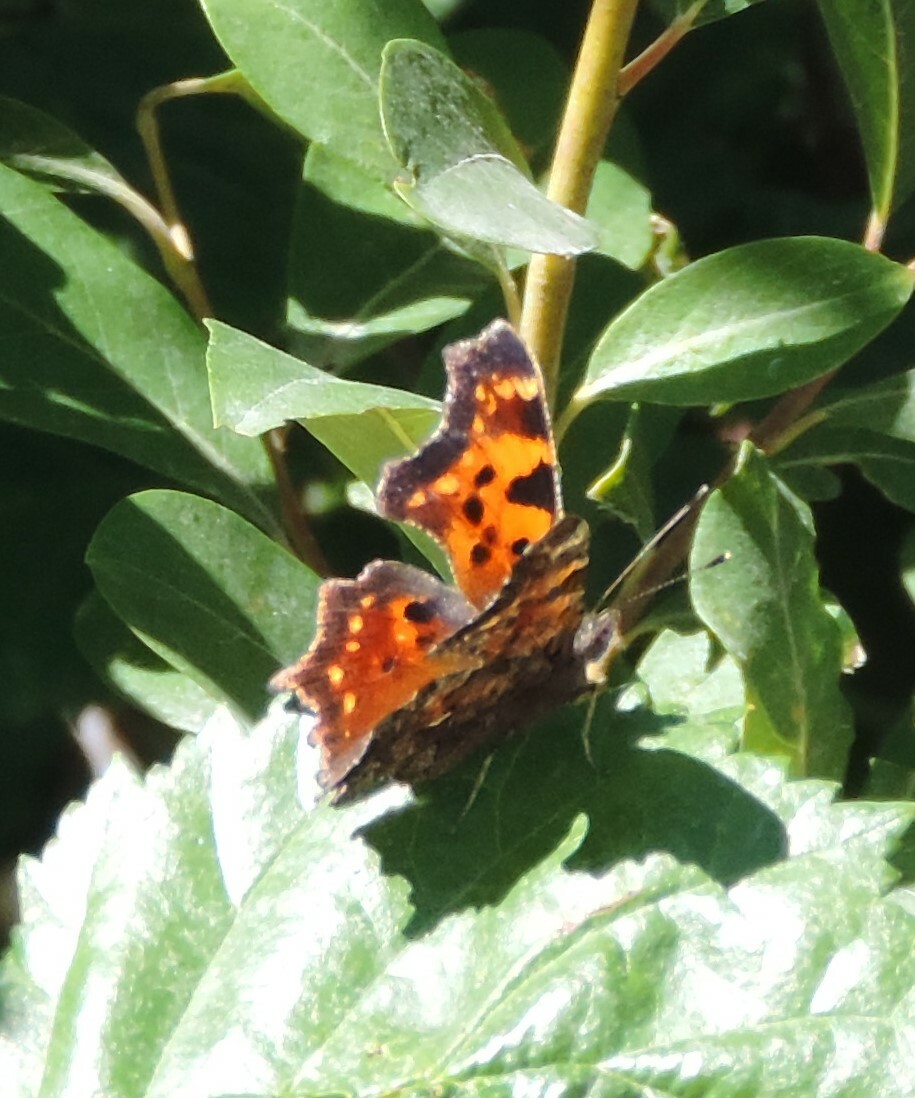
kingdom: Animalia
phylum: Arthropoda
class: Insecta
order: Lepidoptera
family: Nymphalidae
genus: Polygonia
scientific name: Polygonia faunus
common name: Green comma
